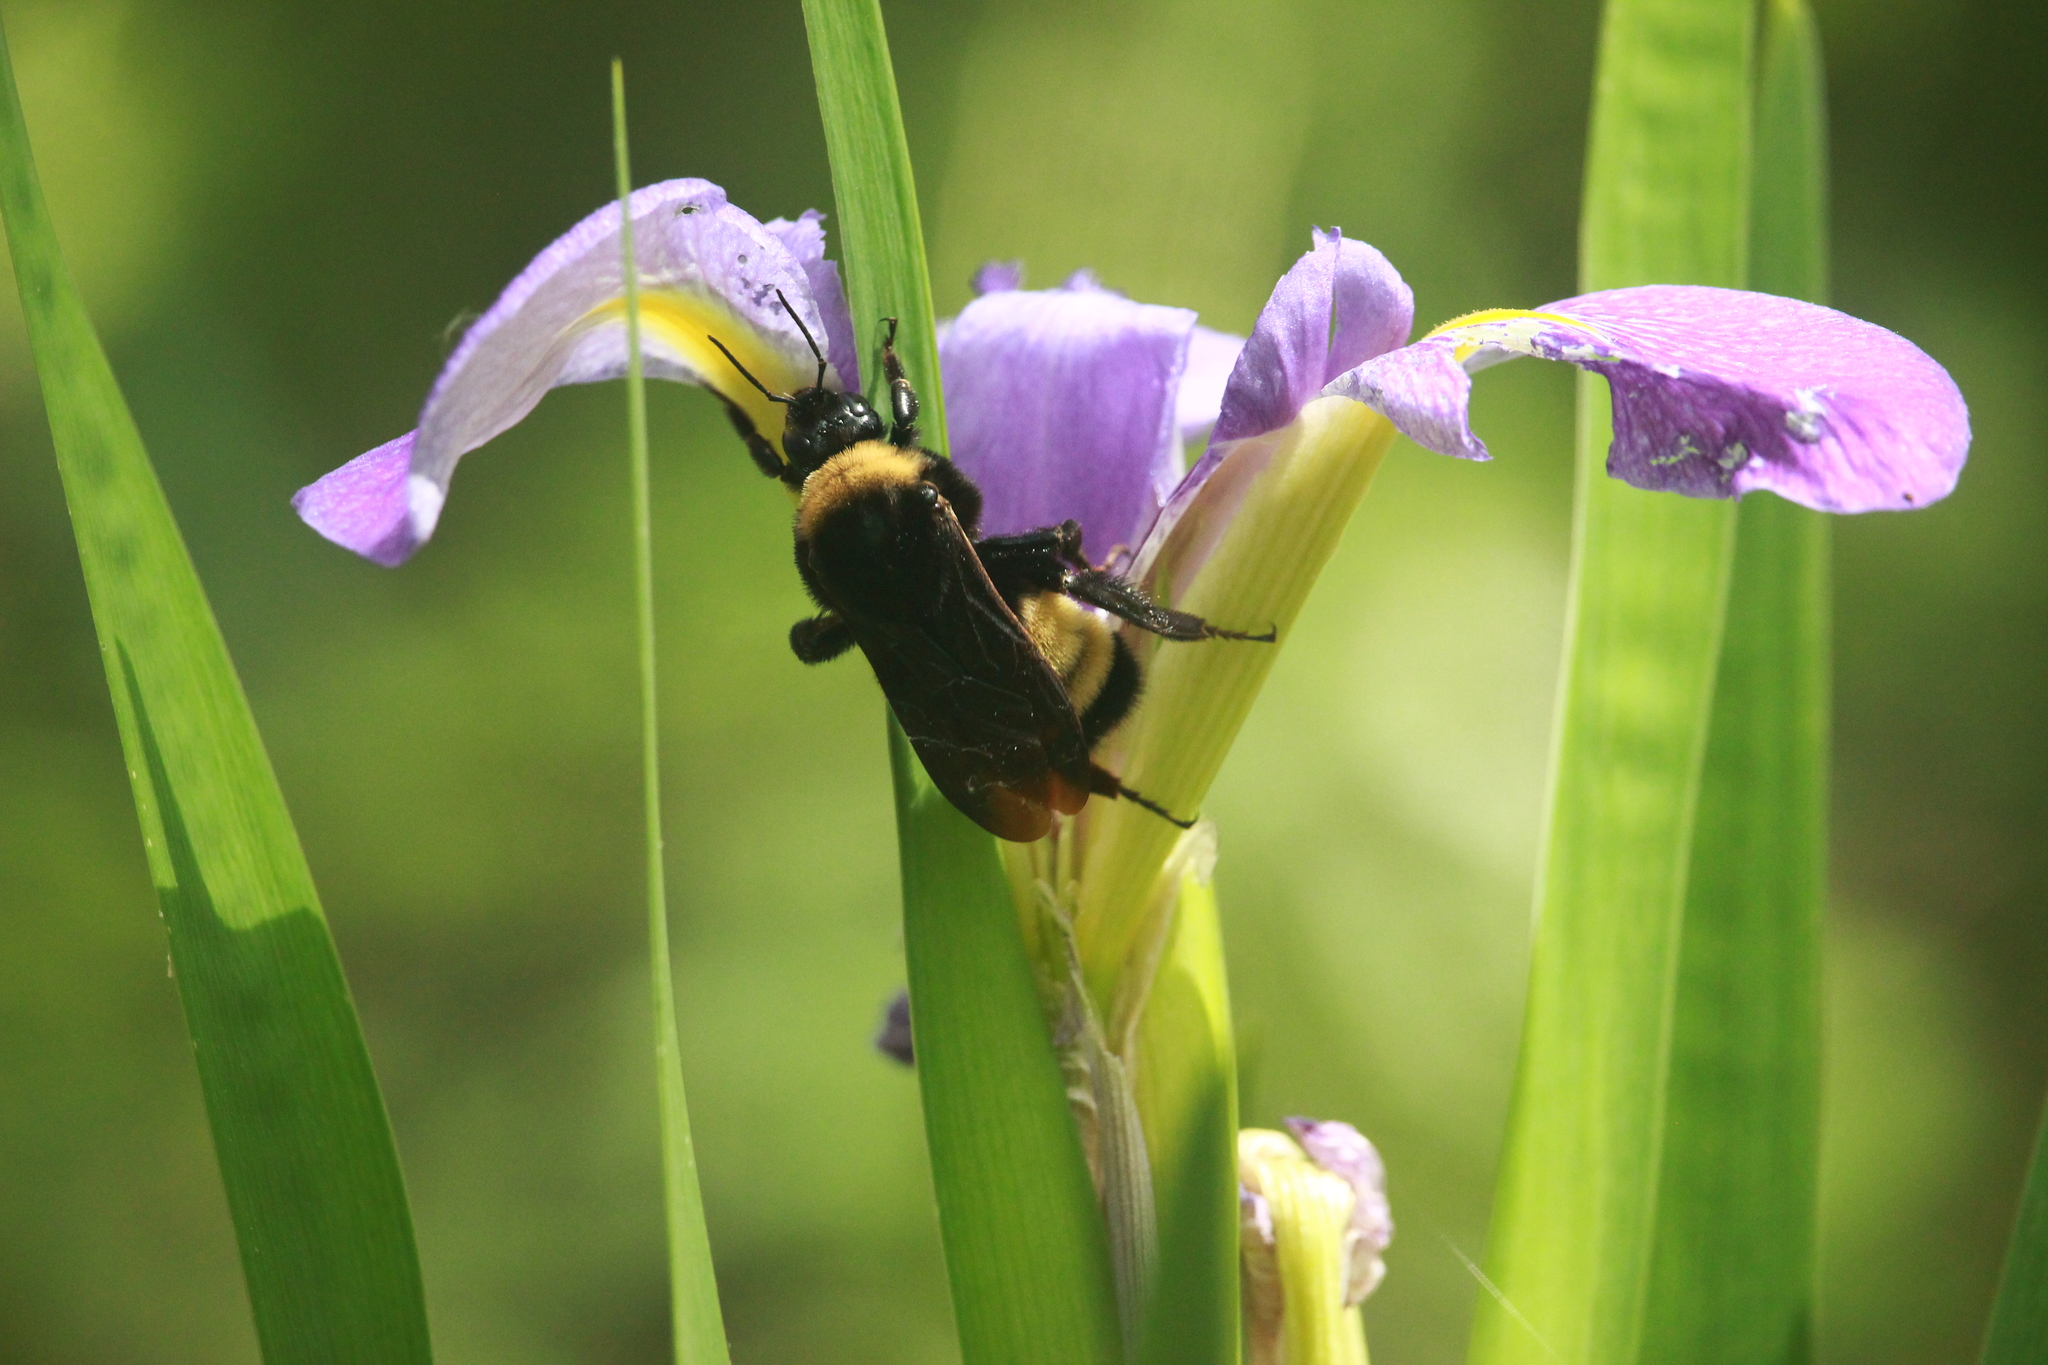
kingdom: Animalia
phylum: Arthropoda
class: Insecta
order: Hymenoptera
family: Apidae
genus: Bombus
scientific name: Bombus pensylvanicus
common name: Bumble bee
